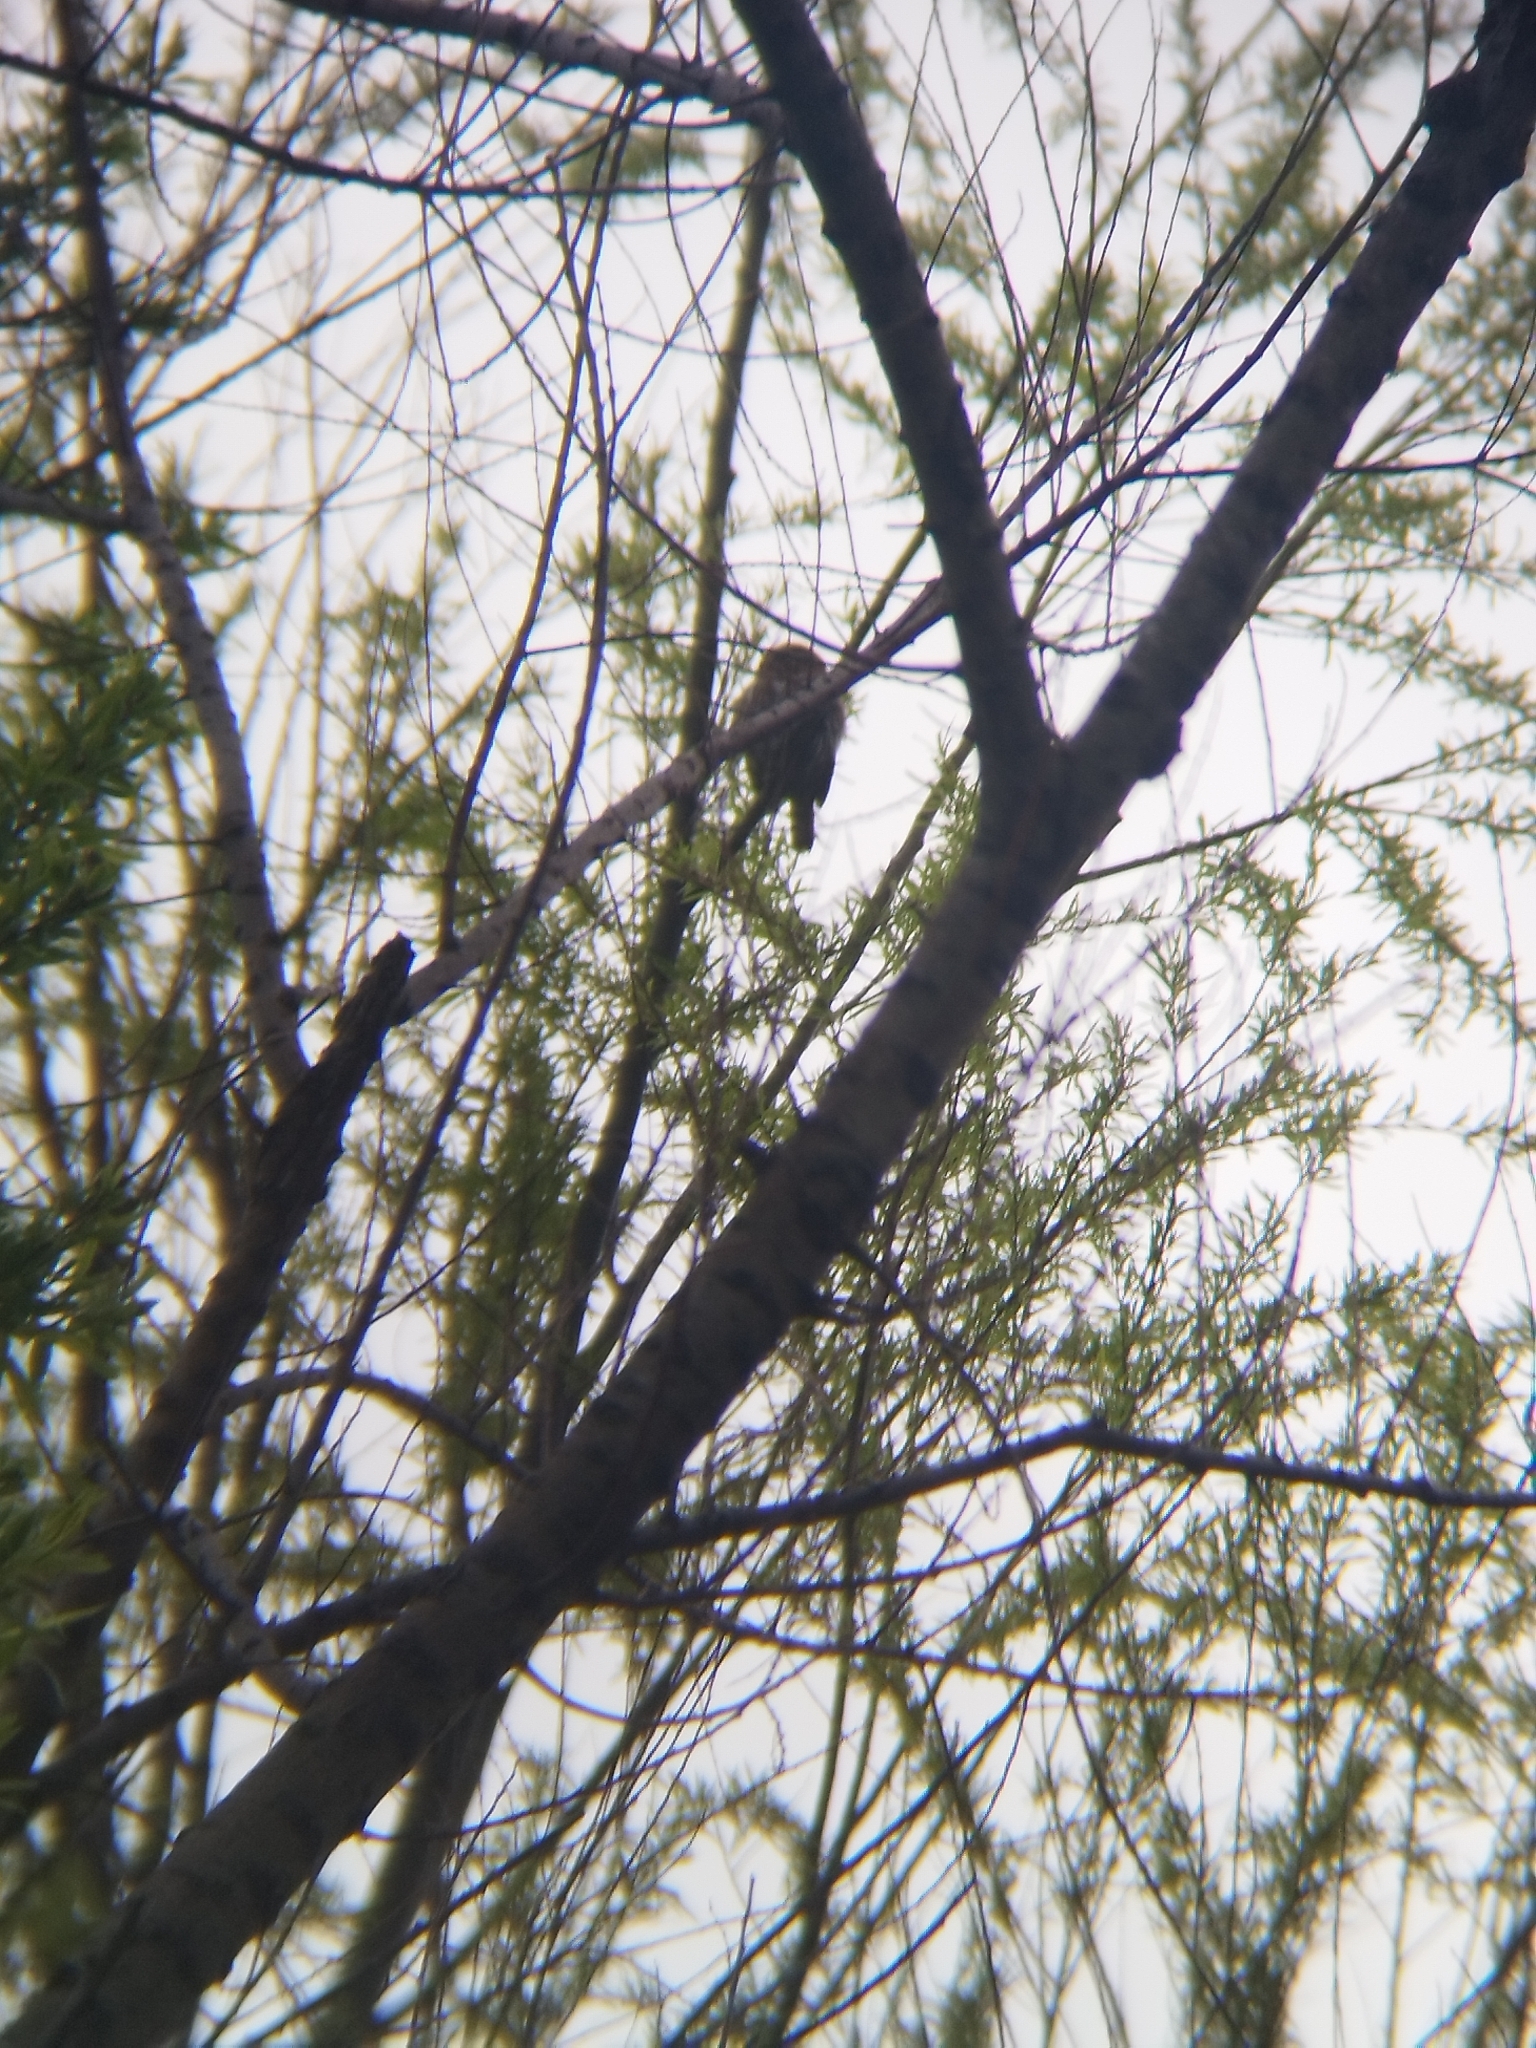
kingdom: Animalia
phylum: Chordata
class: Aves
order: Strigiformes
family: Strigidae
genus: Glaucidium
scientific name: Glaucidium brasilianum
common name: Ferruginous pygmy-owl
